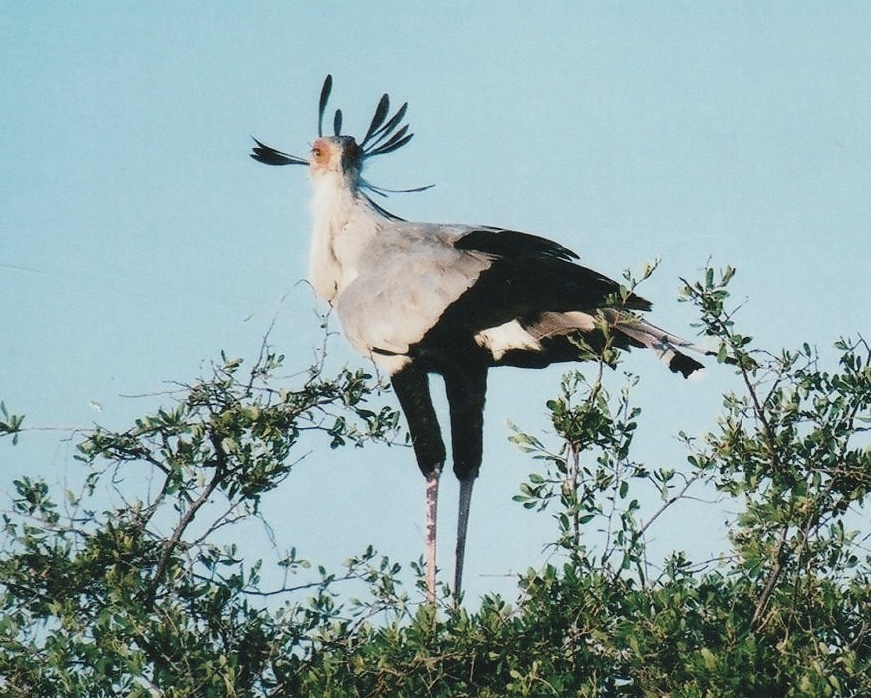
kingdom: Animalia
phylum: Chordata
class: Aves
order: Accipitriformes
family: Sagittariidae
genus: Sagittarius
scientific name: Sagittarius serpentarius
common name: Secretarybird
